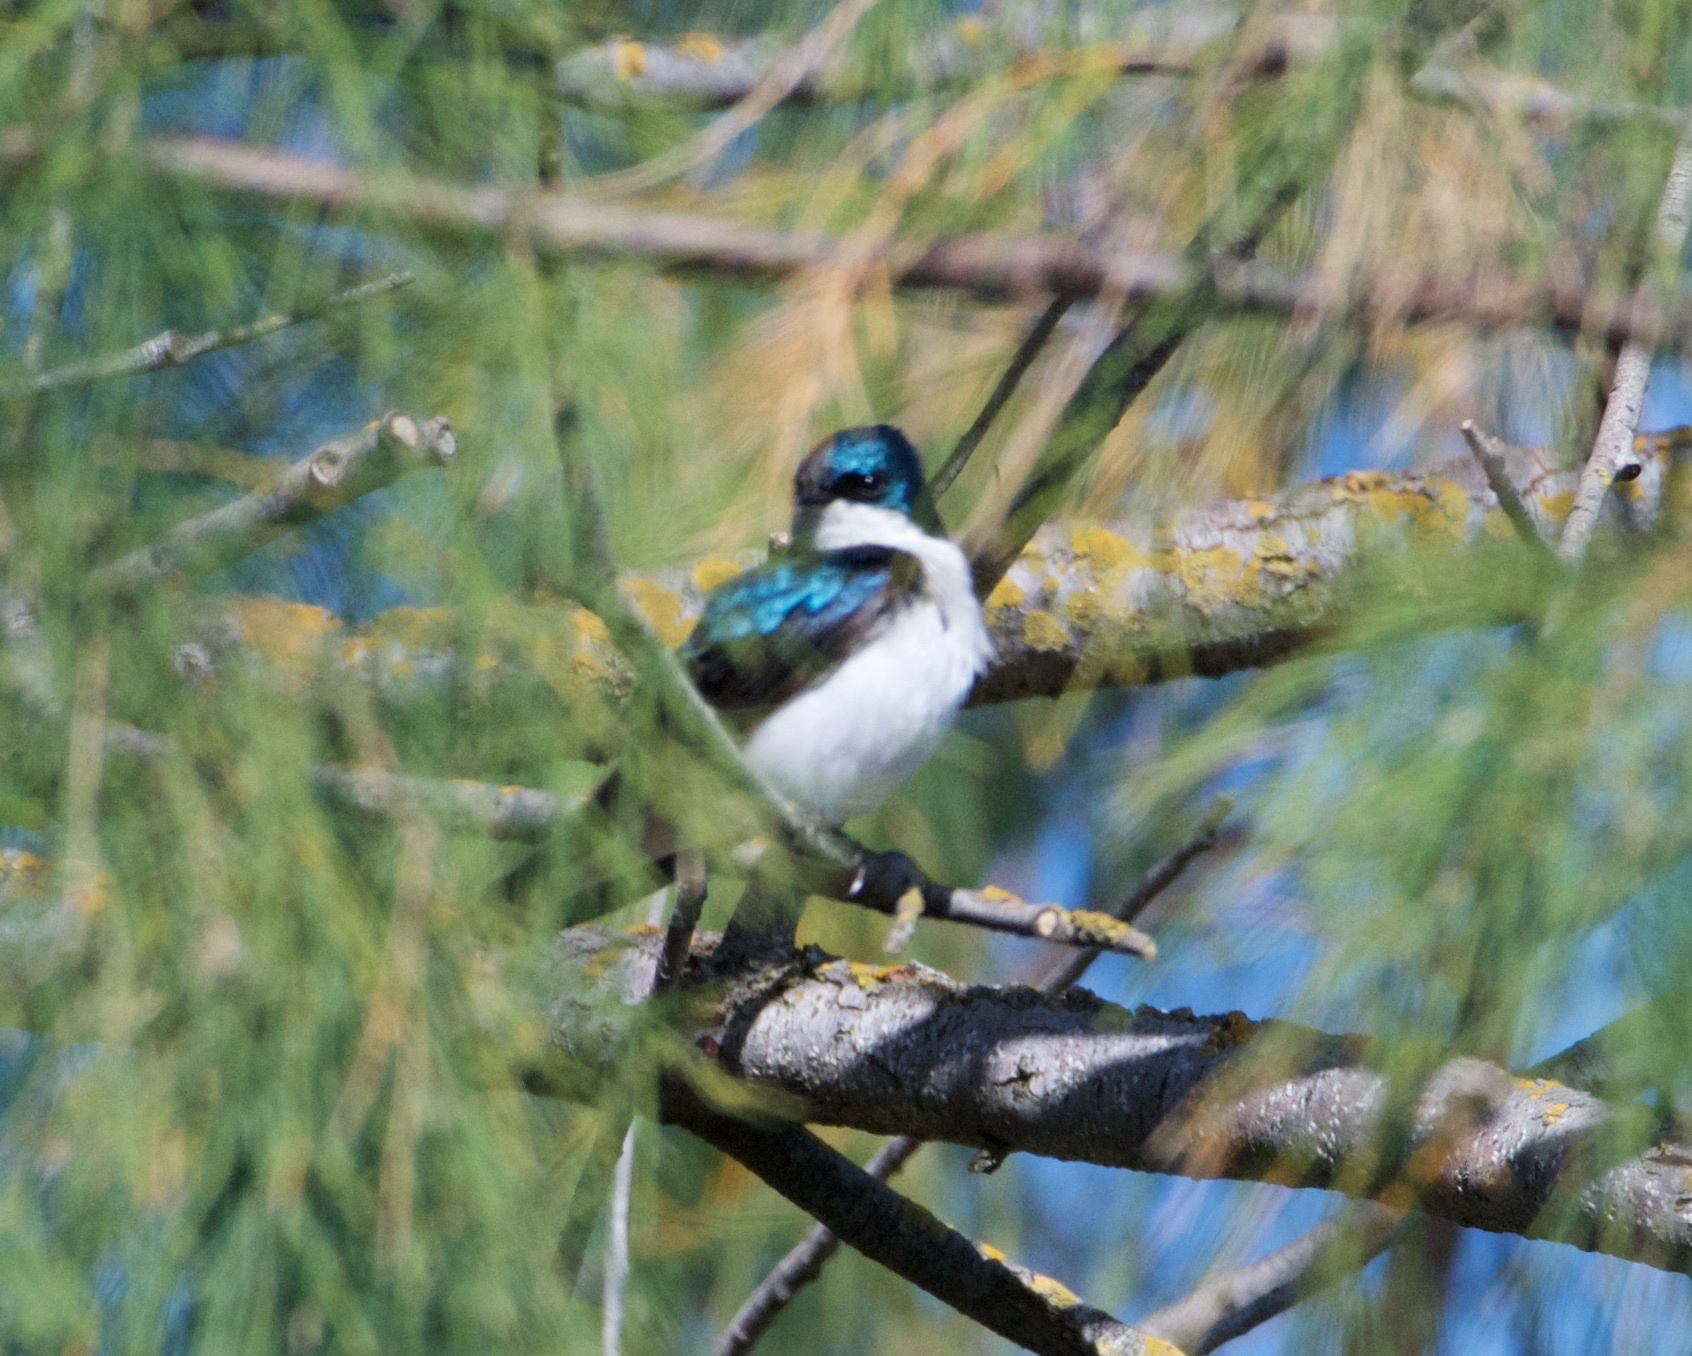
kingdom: Animalia
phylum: Chordata
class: Aves
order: Passeriformes
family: Hirundinidae
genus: Tachycineta
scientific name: Tachycineta bicolor
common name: Tree swallow
